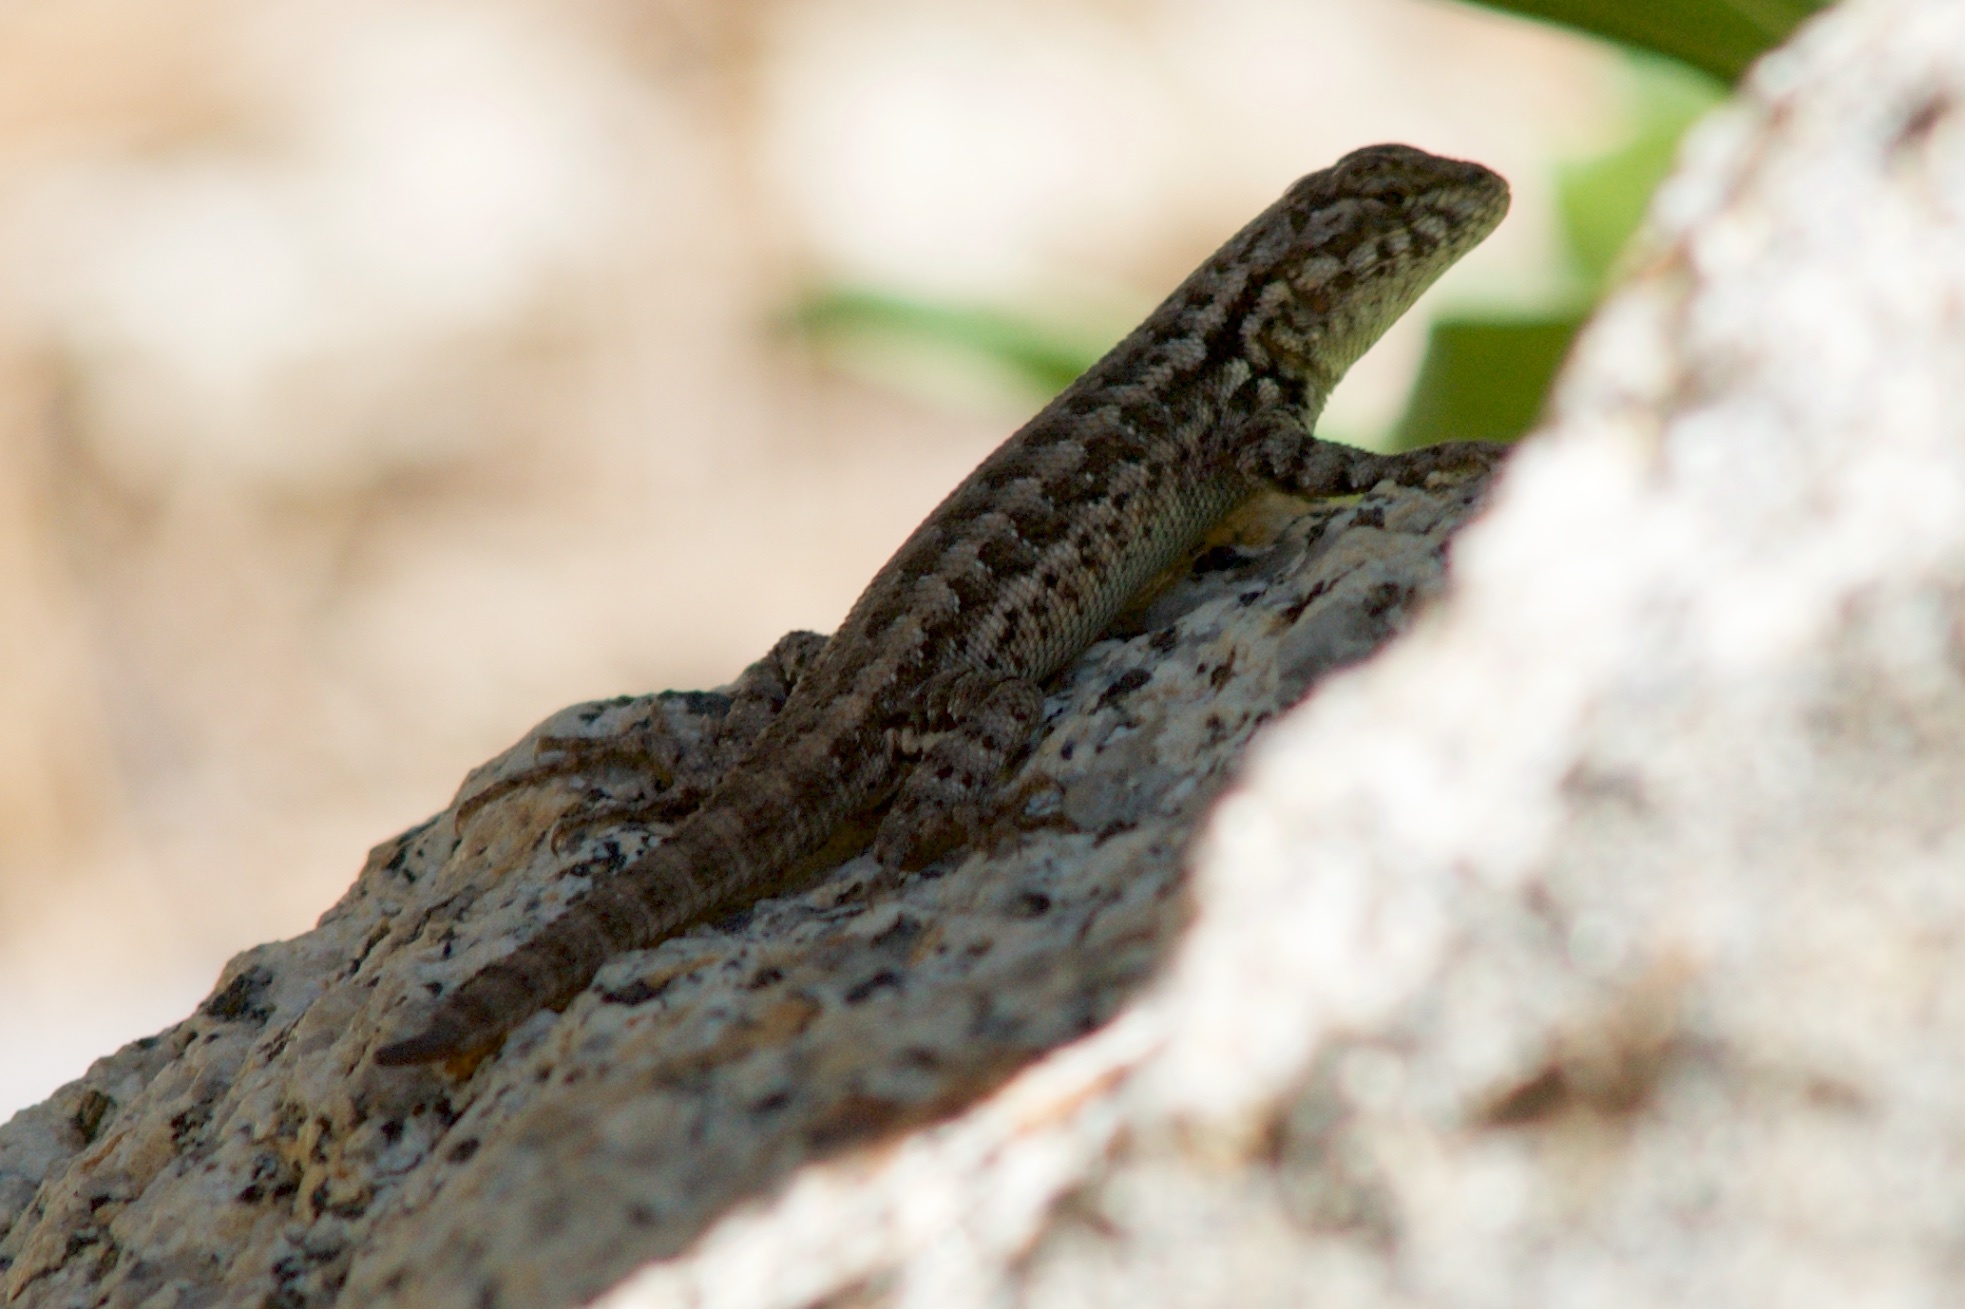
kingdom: Animalia
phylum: Chordata
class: Squamata
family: Phrynosomatidae
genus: Sceloporus
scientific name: Sceloporus graciosus
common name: Sagebrush lizard
